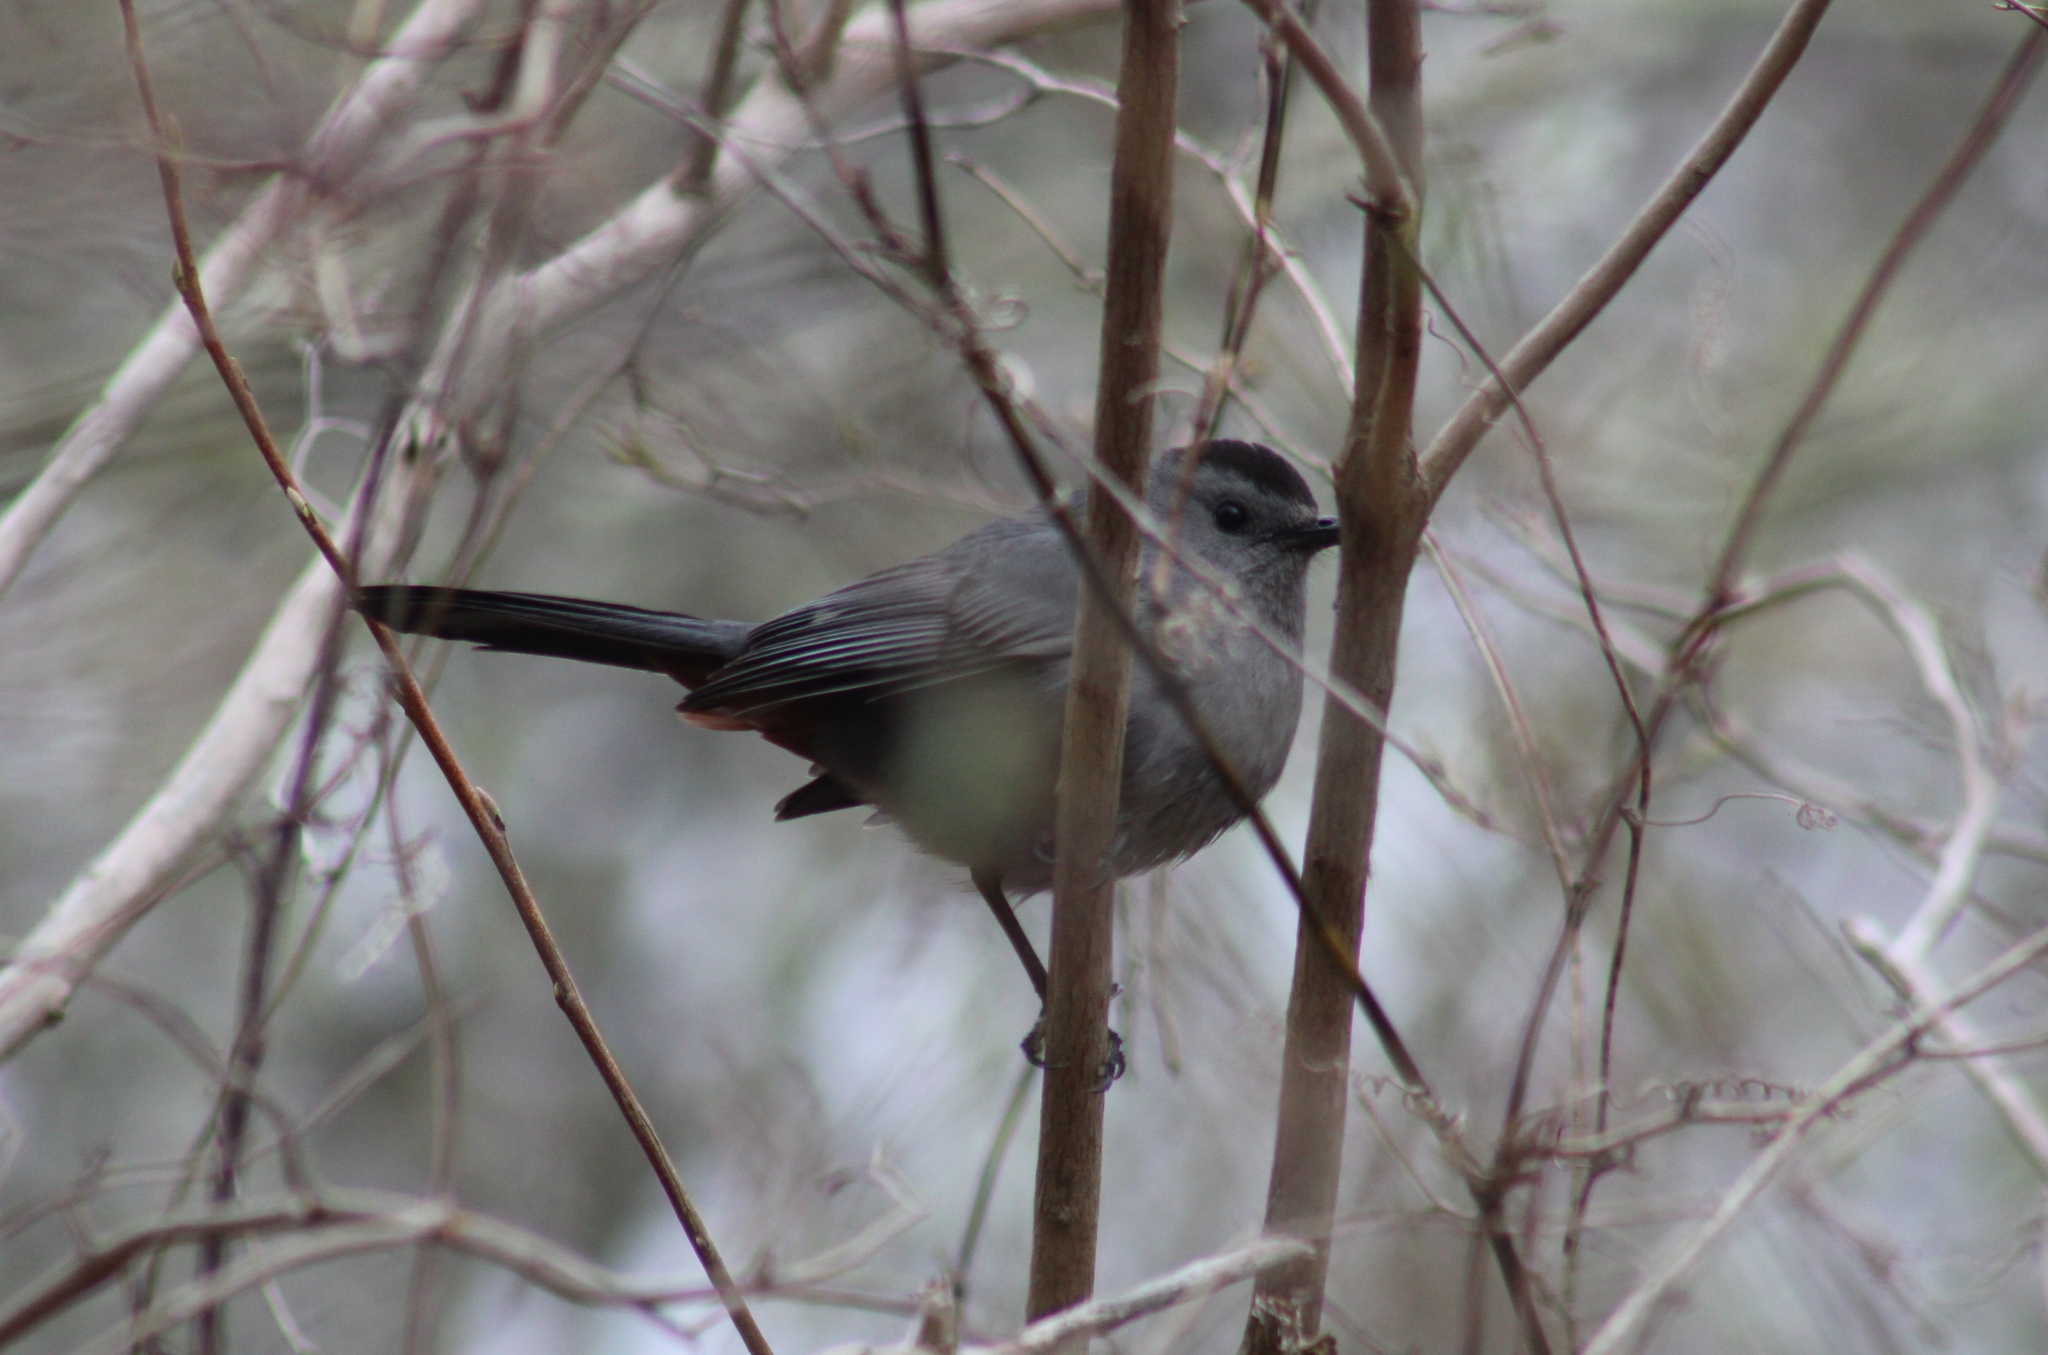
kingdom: Animalia
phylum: Chordata
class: Aves
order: Passeriformes
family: Mimidae
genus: Dumetella
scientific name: Dumetella carolinensis
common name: Gray catbird
